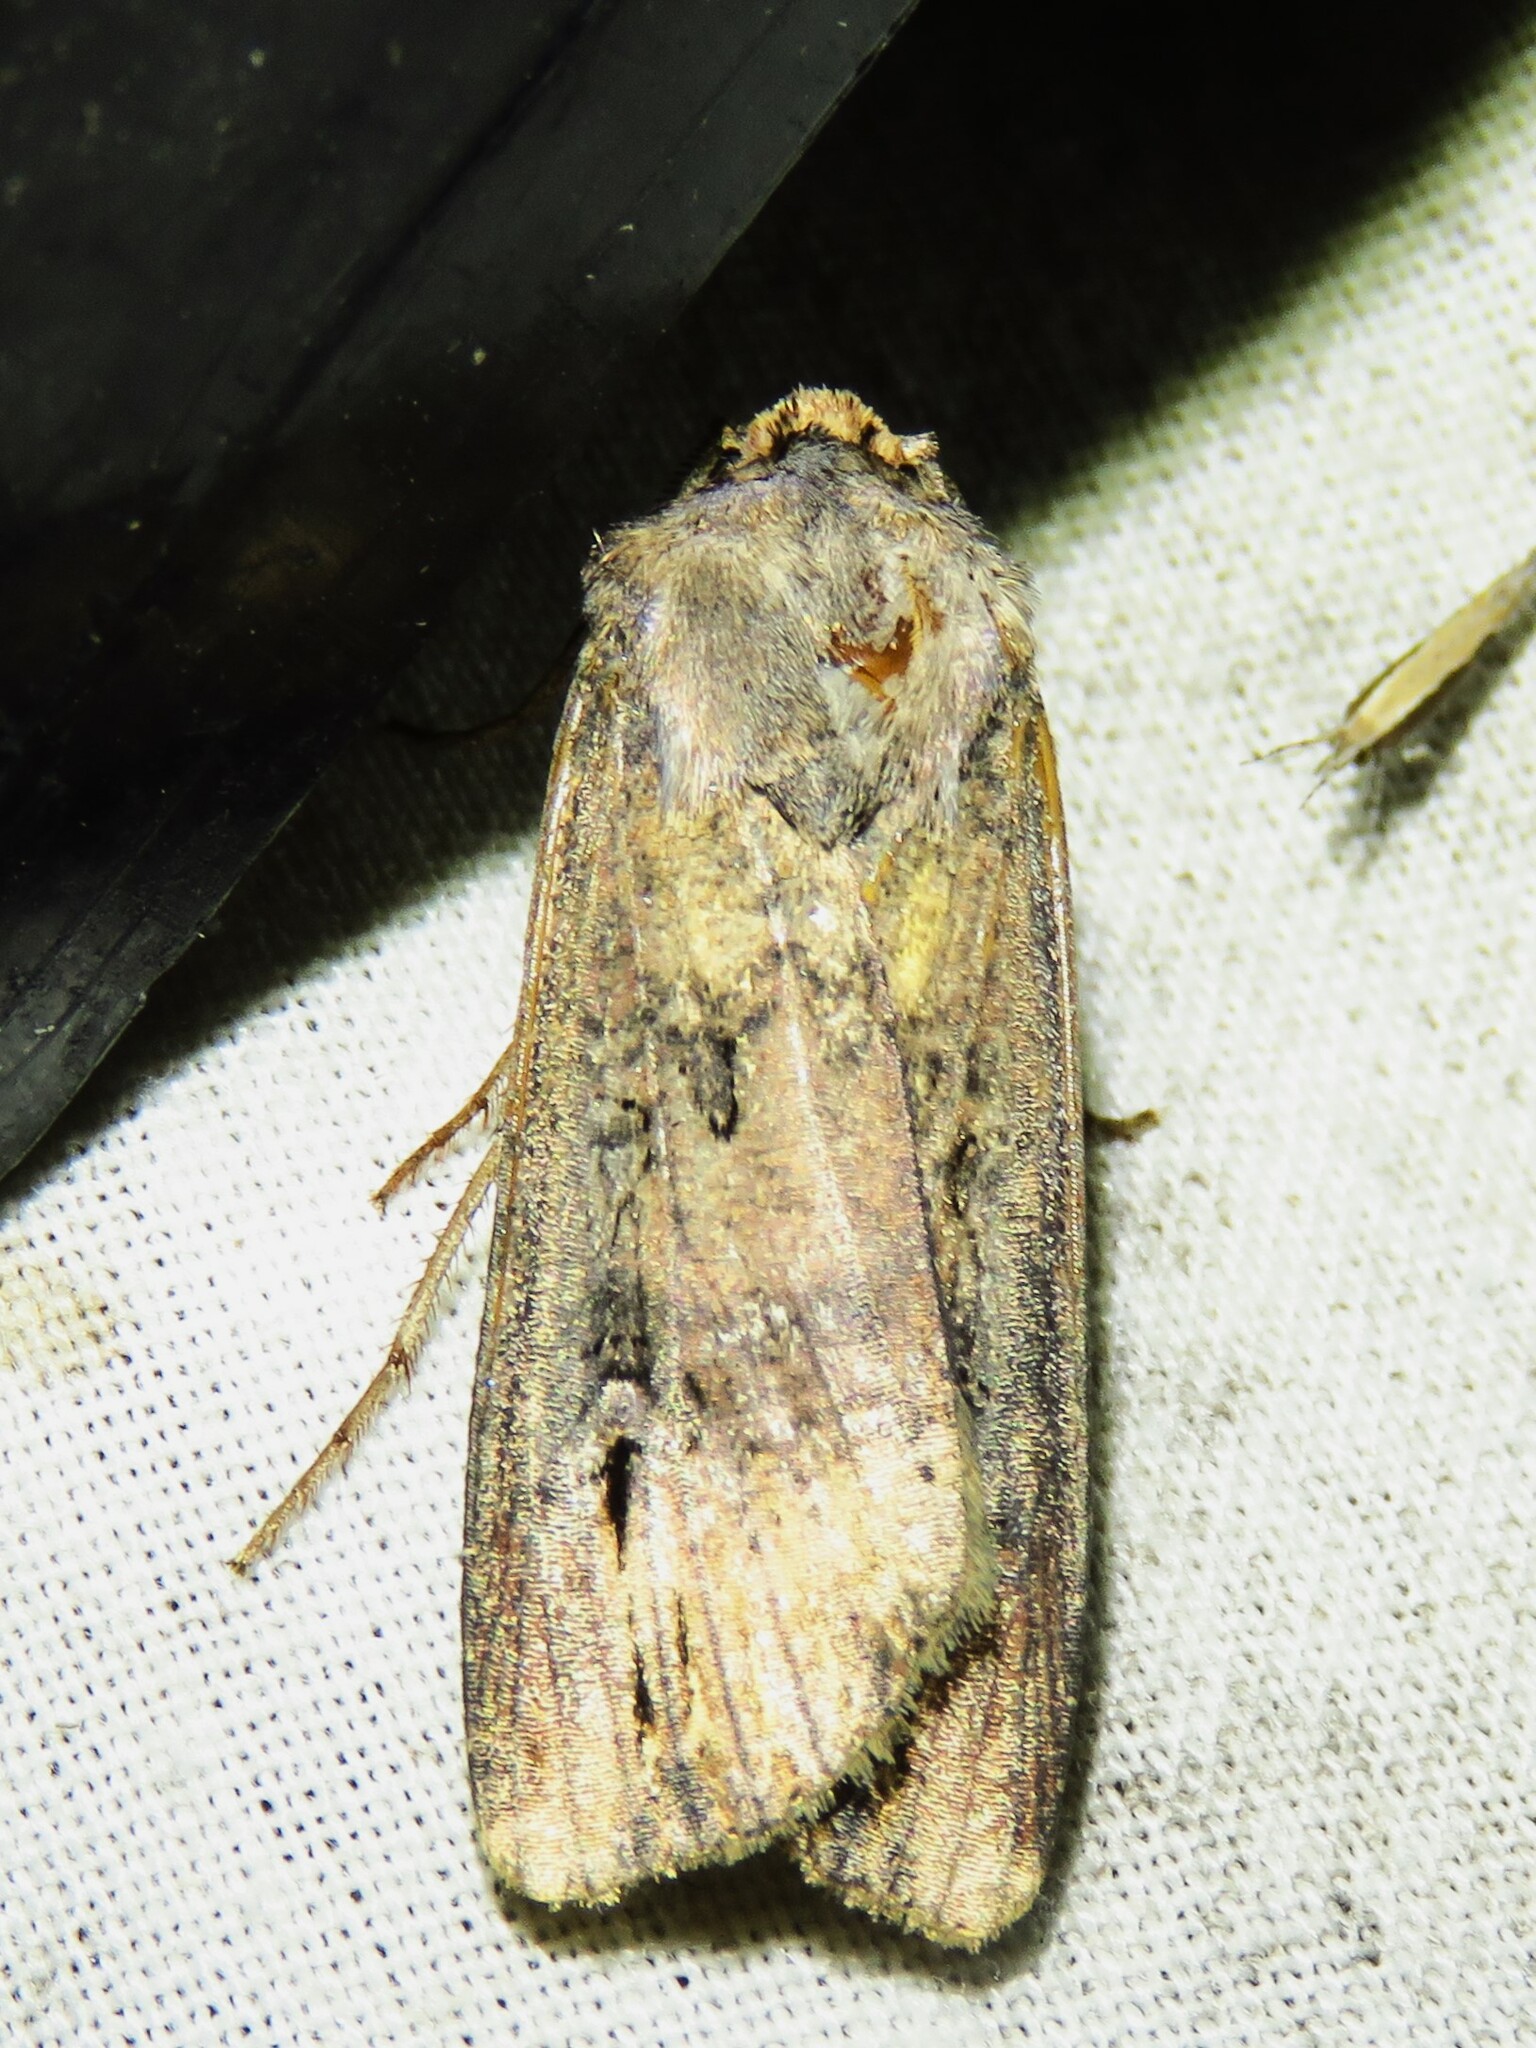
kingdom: Animalia
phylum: Arthropoda
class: Insecta
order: Lepidoptera
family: Noctuidae
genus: Agrotis
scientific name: Agrotis ipsilon
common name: Dark sword-grass
